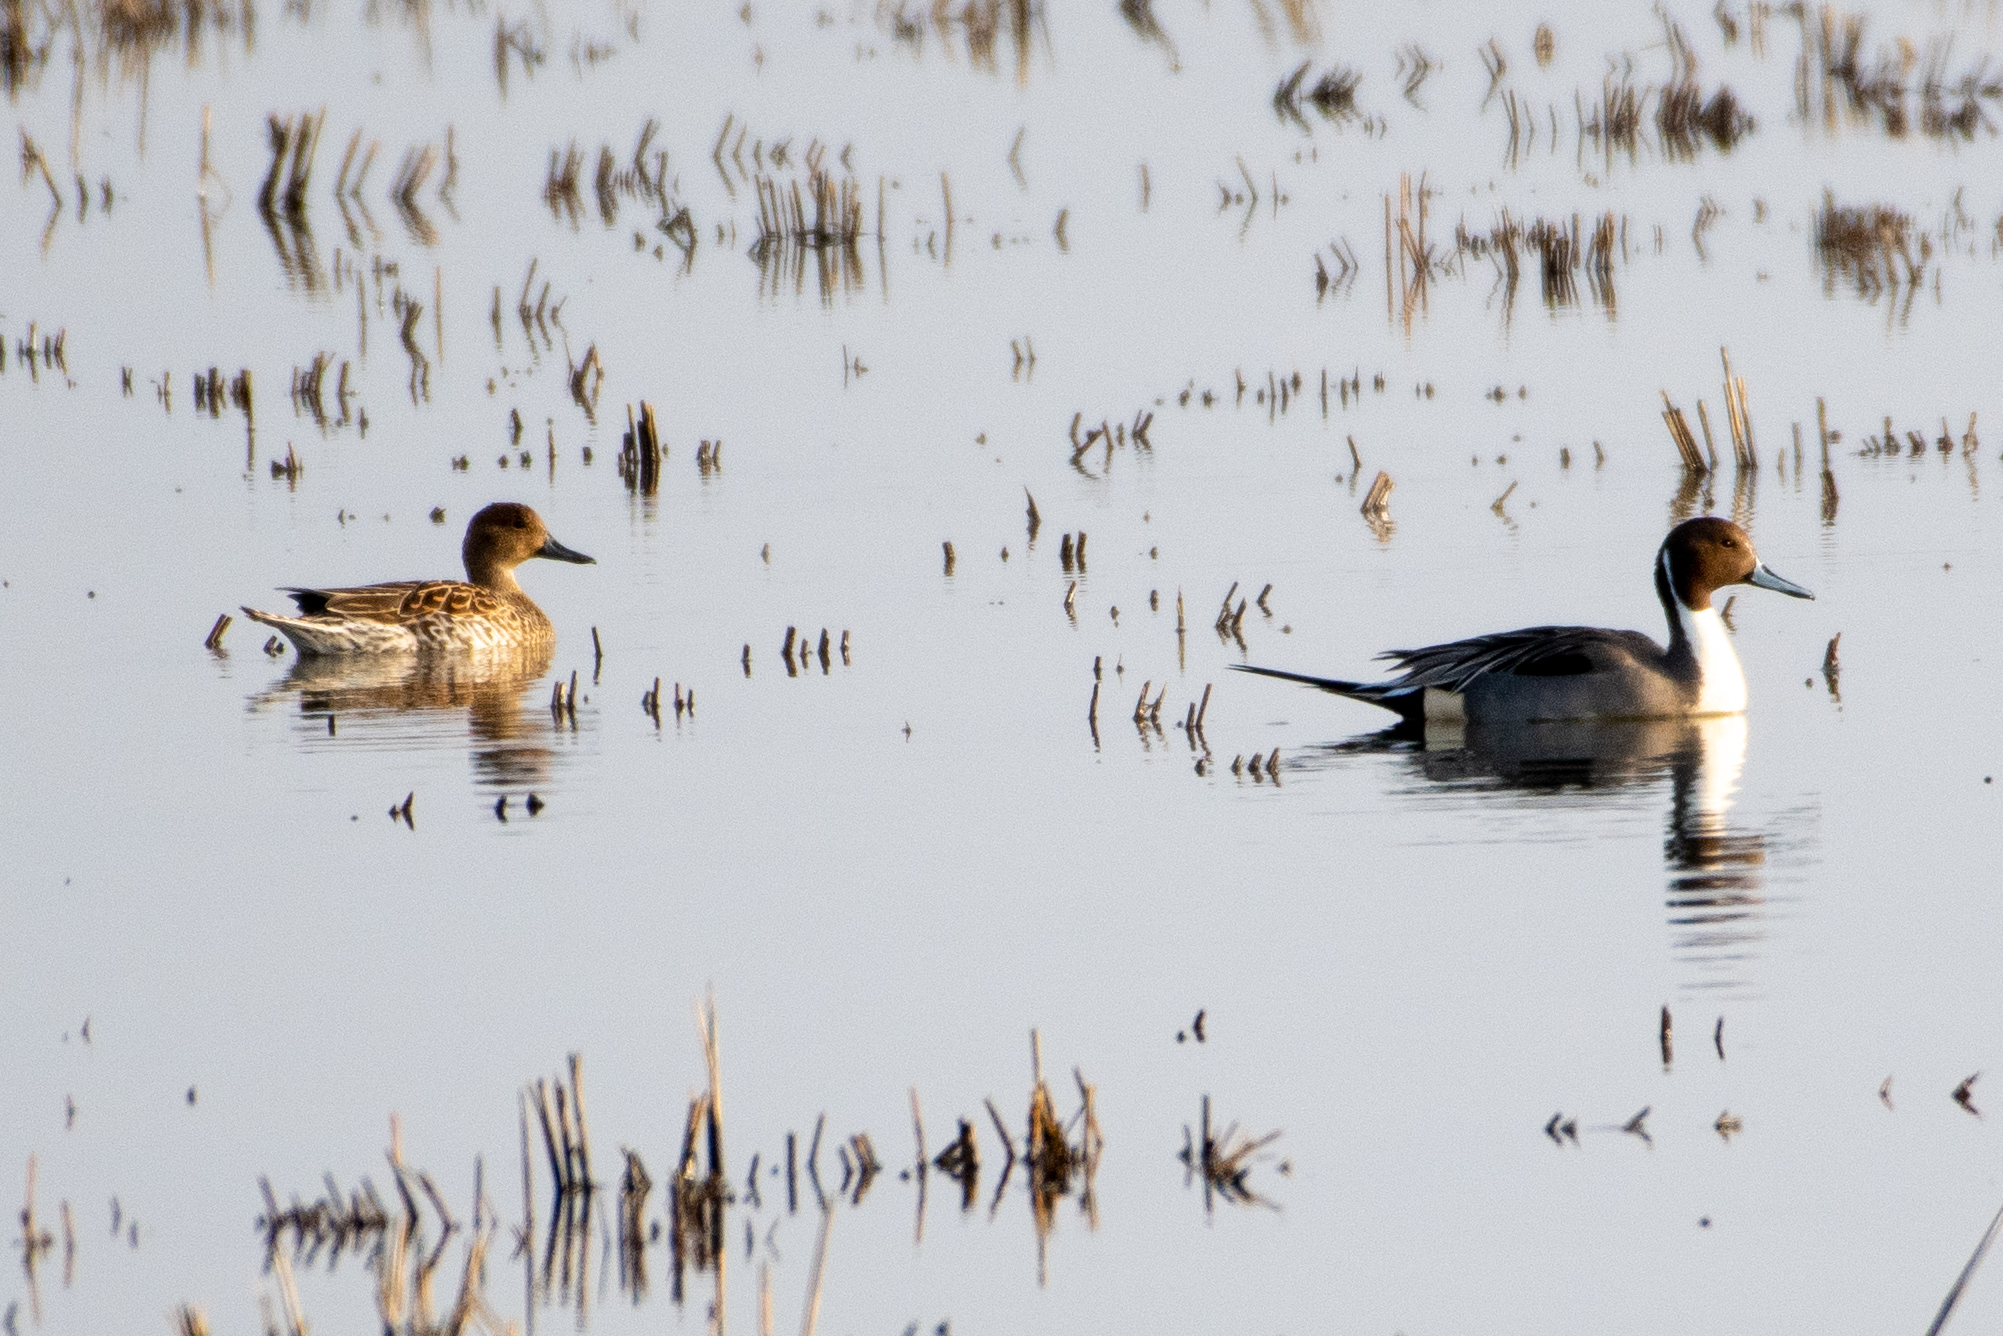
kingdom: Animalia
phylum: Chordata
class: Aves
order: Anseriformes
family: Anatidae
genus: Anas
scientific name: Anas acuta
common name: Northern pintail
